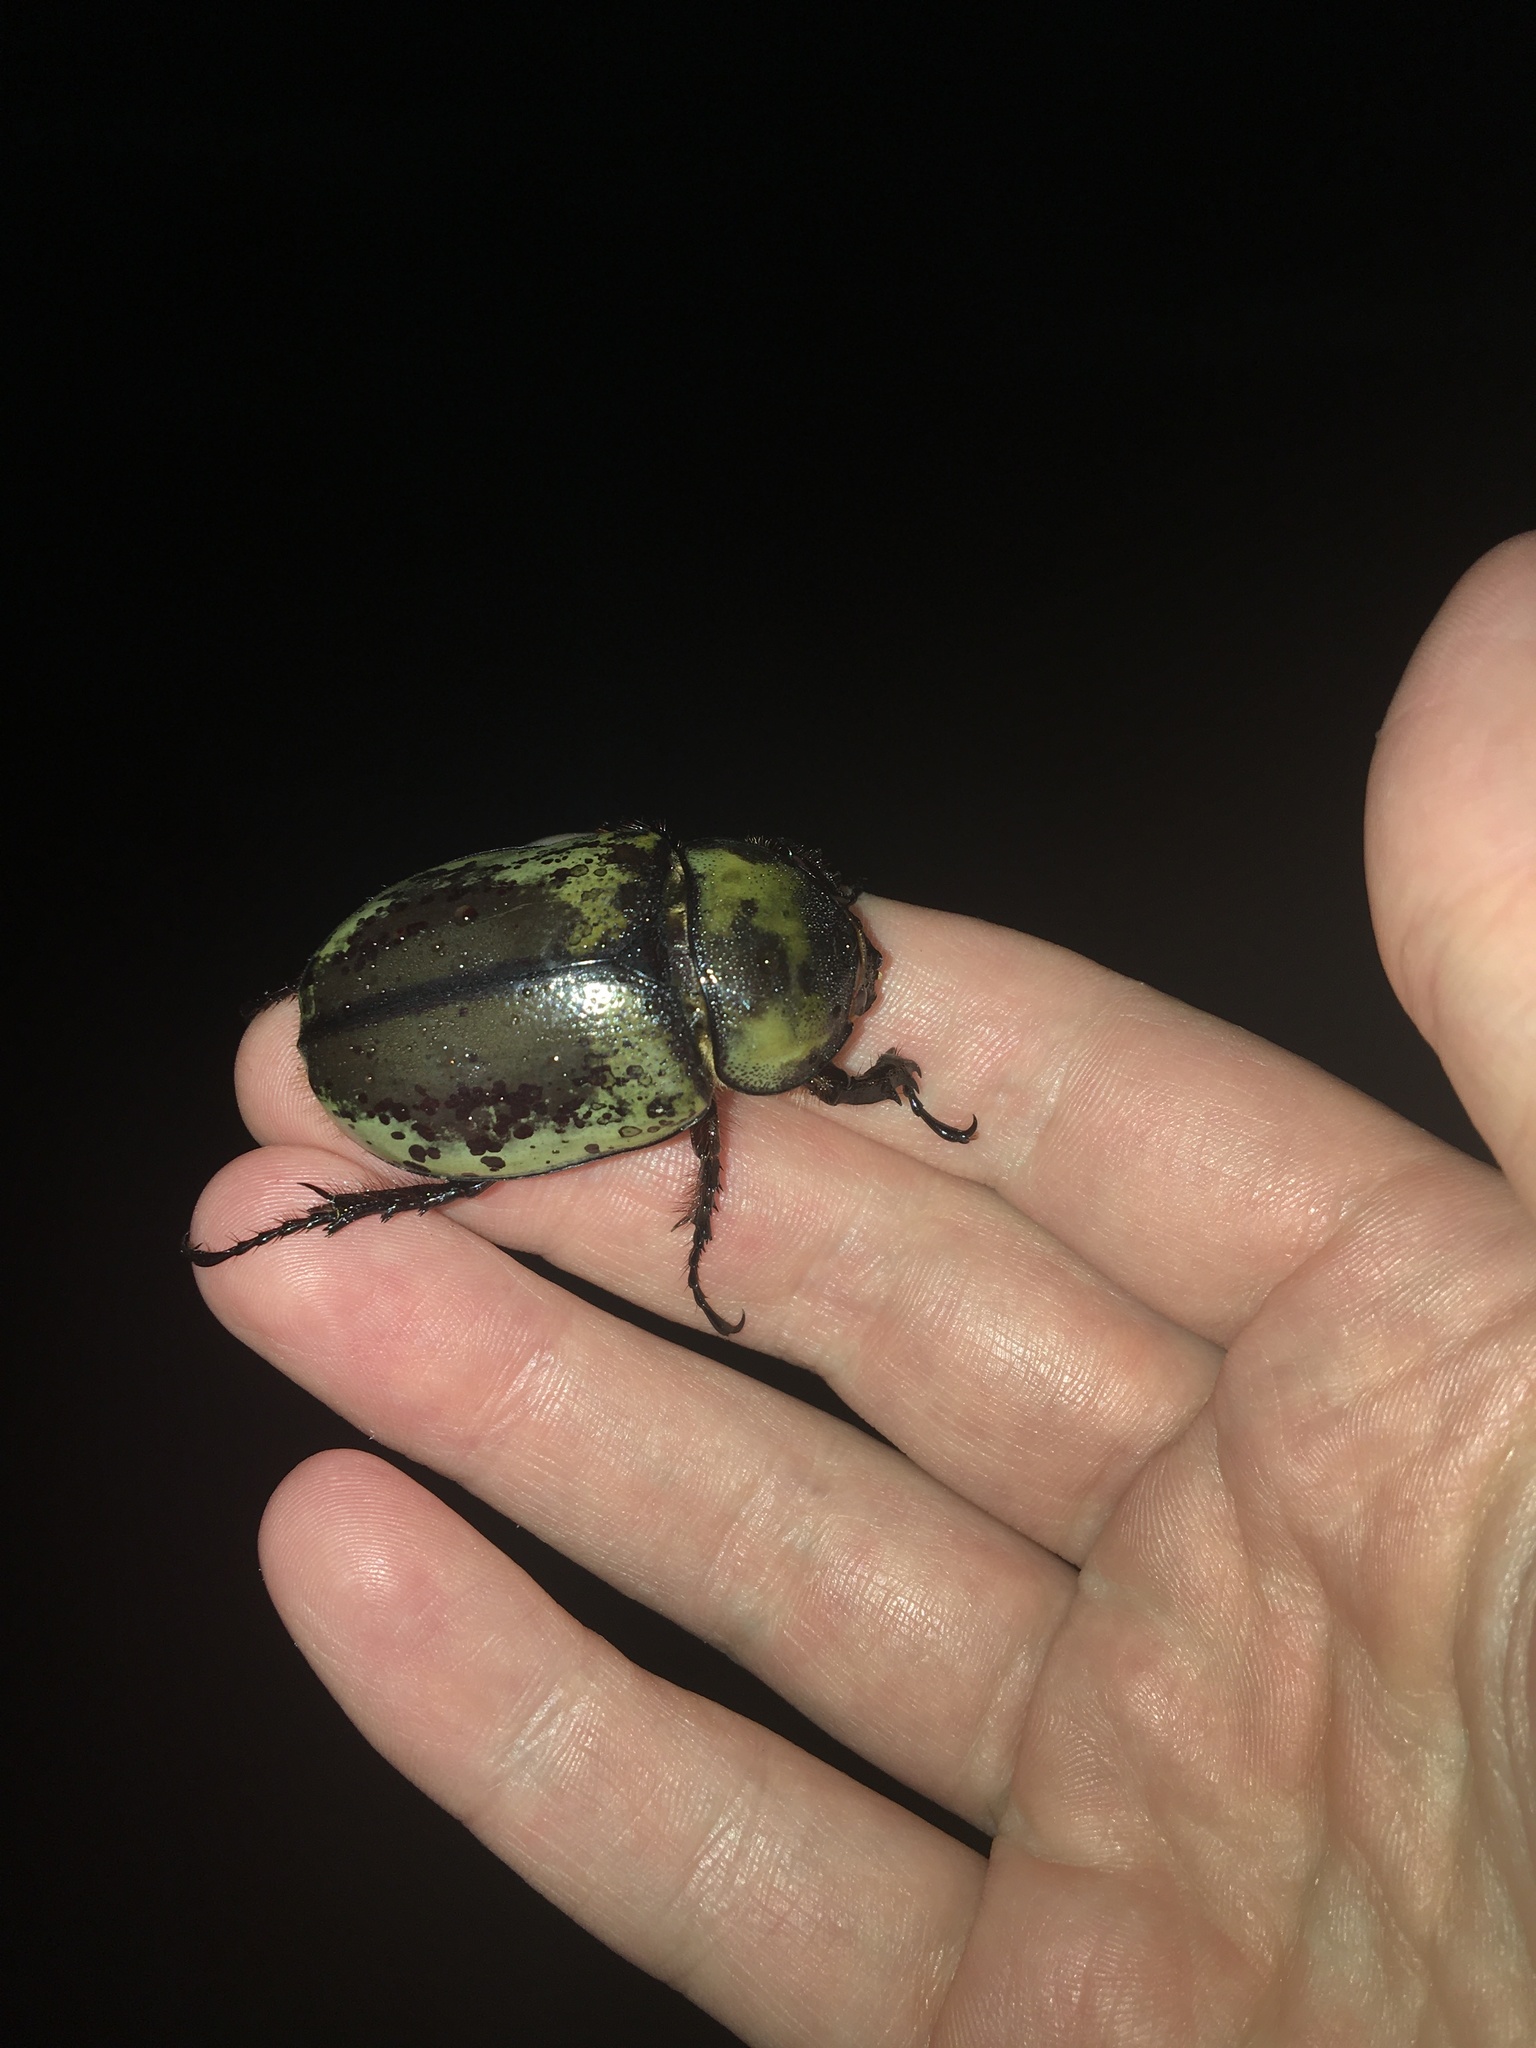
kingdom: Animalia
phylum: Arthropoda
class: Insecta
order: Coleoptera
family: Scarabaeidae
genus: Dynastes
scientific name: Dynastes tityus
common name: Eastern hercules beetle
